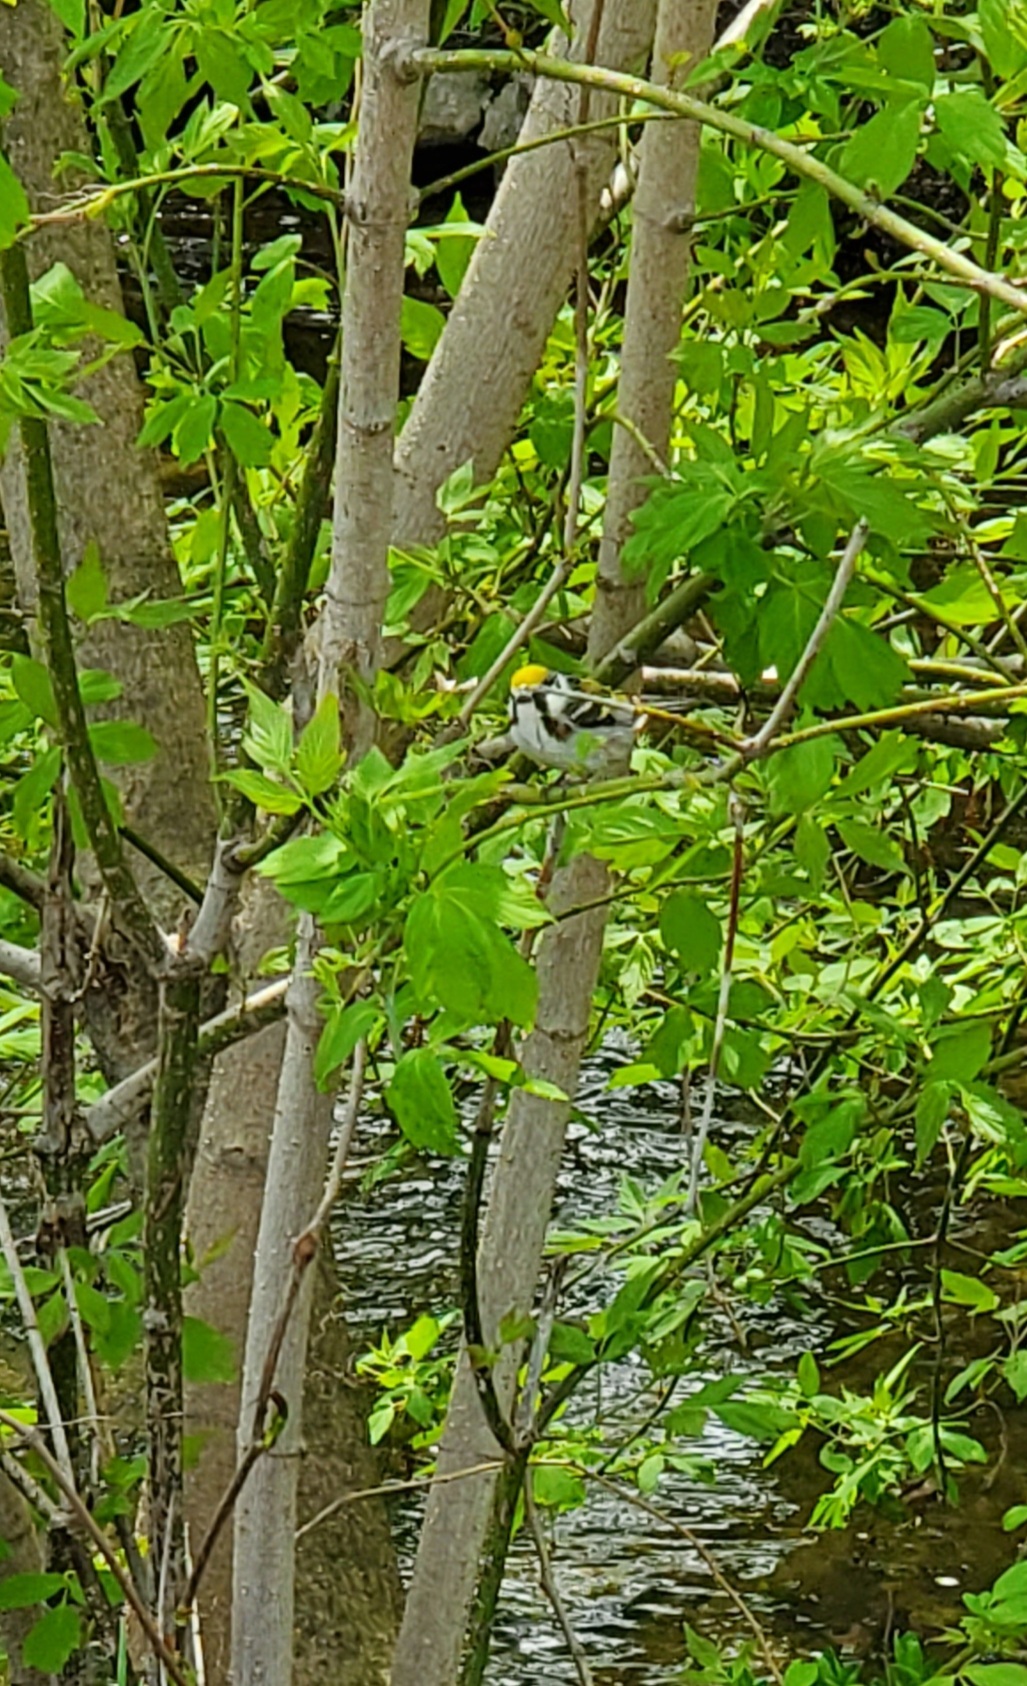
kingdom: Animalia
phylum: Chordata
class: Aves
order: Passeriformes
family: Parulidae
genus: Setophaga
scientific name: Setophaga pensylvanica
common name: Chestnut-sided warbler
